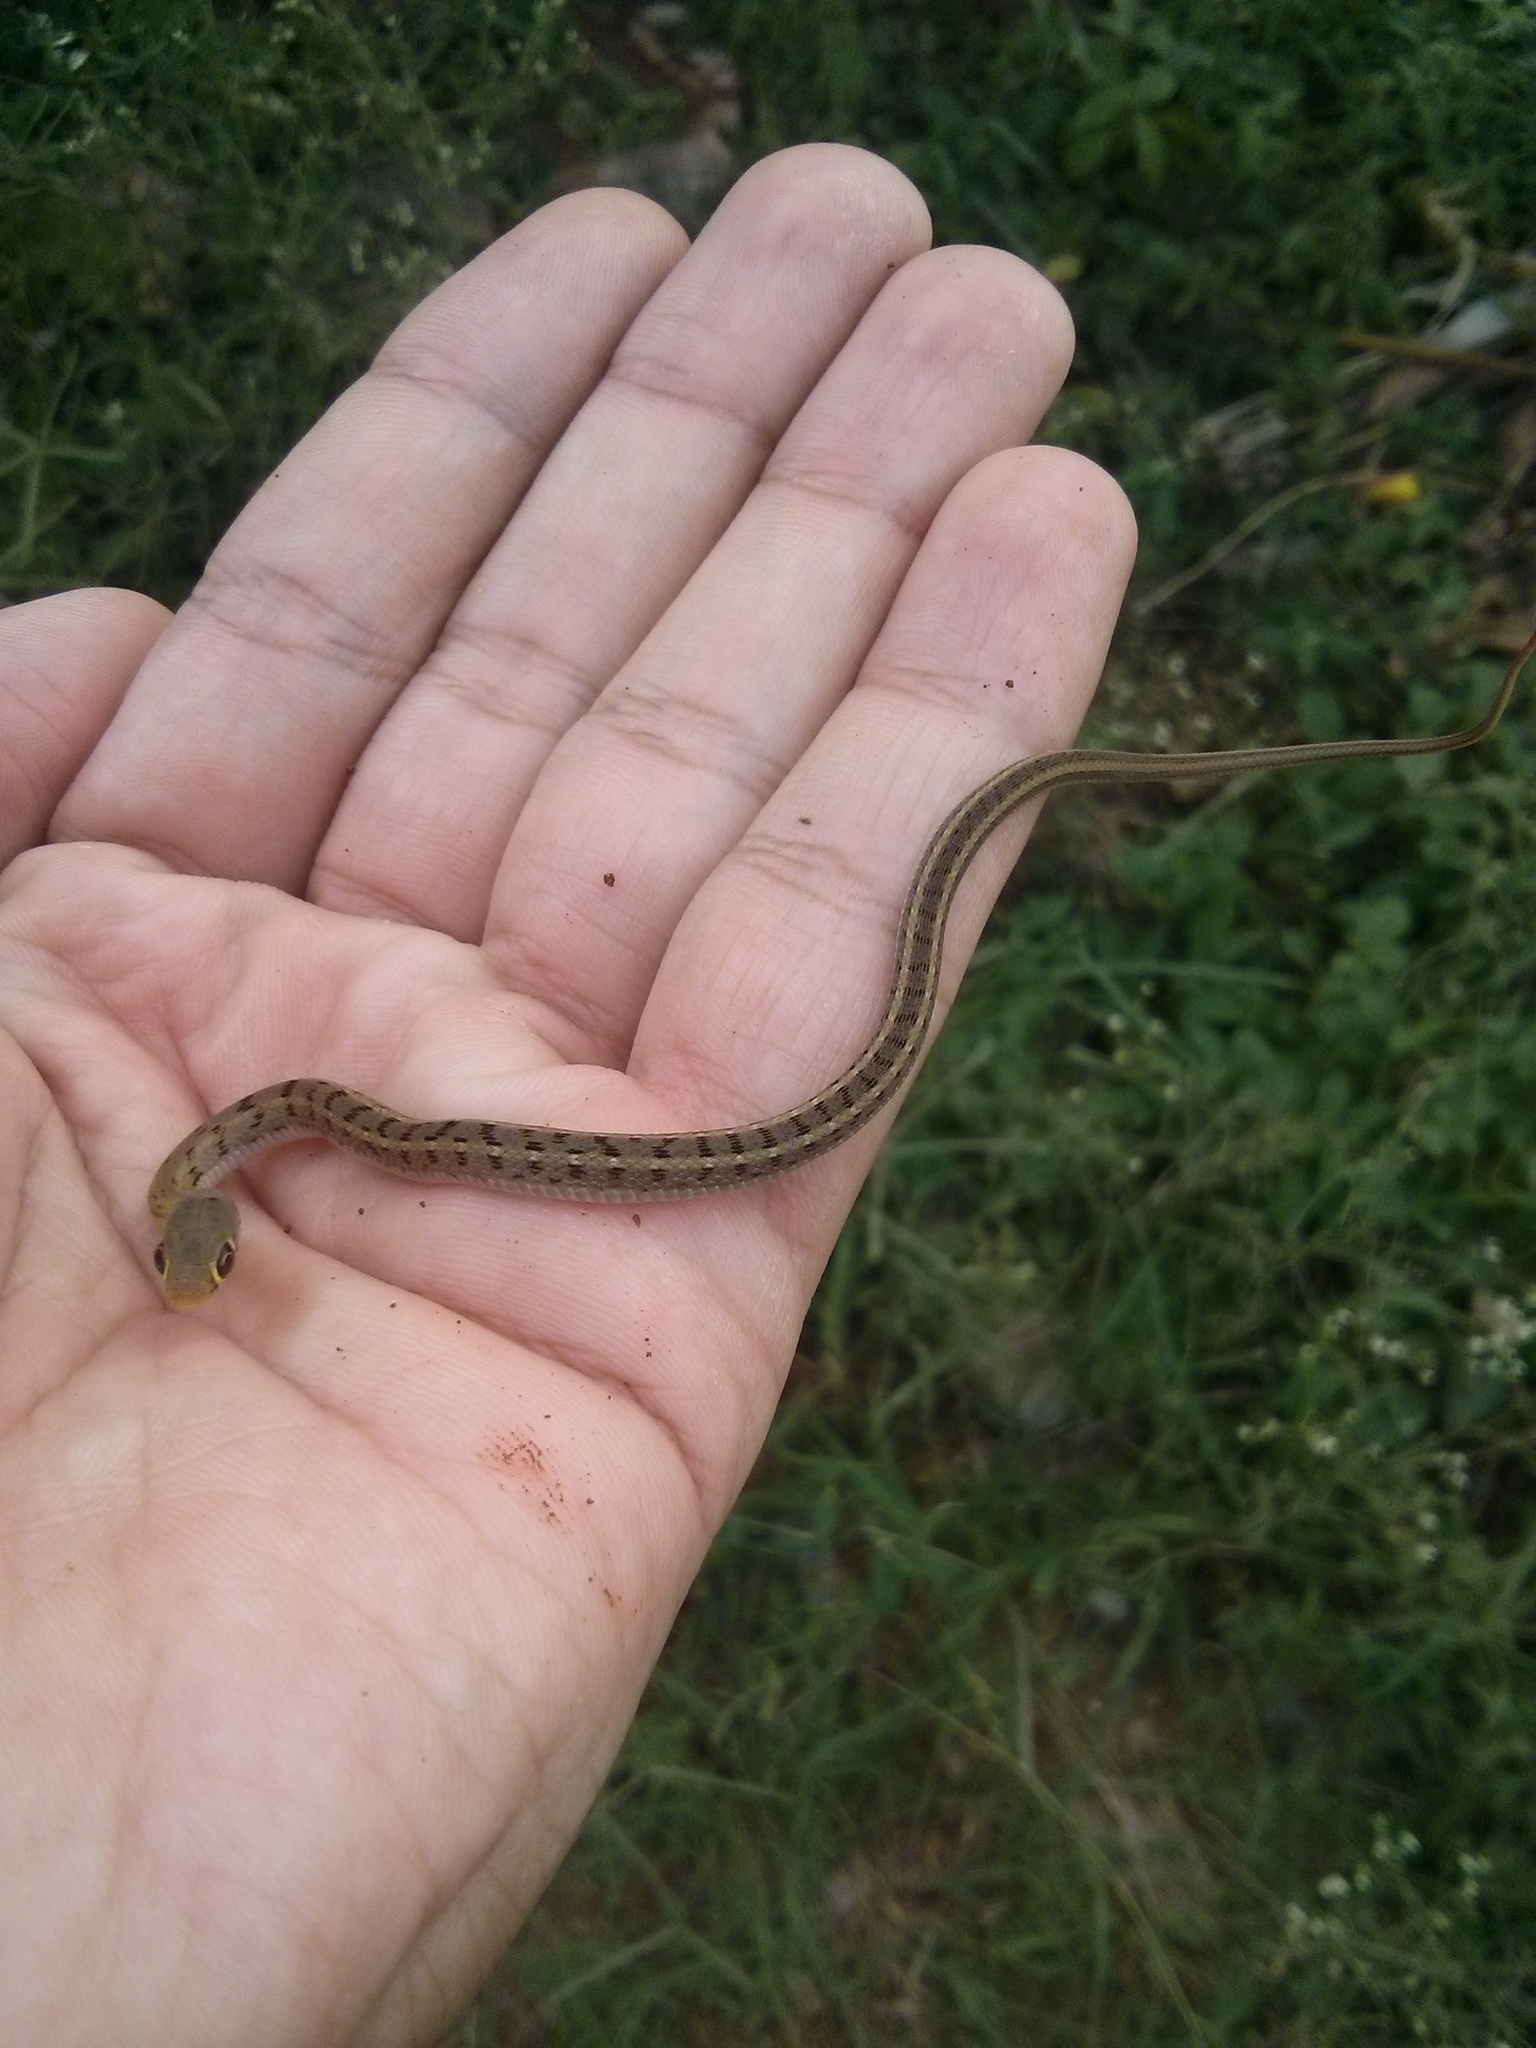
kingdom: Animalia
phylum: Chordata
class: Squamata
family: Colubridae
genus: Amphiesma
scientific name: Amphiesma stolatum
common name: Buff striped keelback
